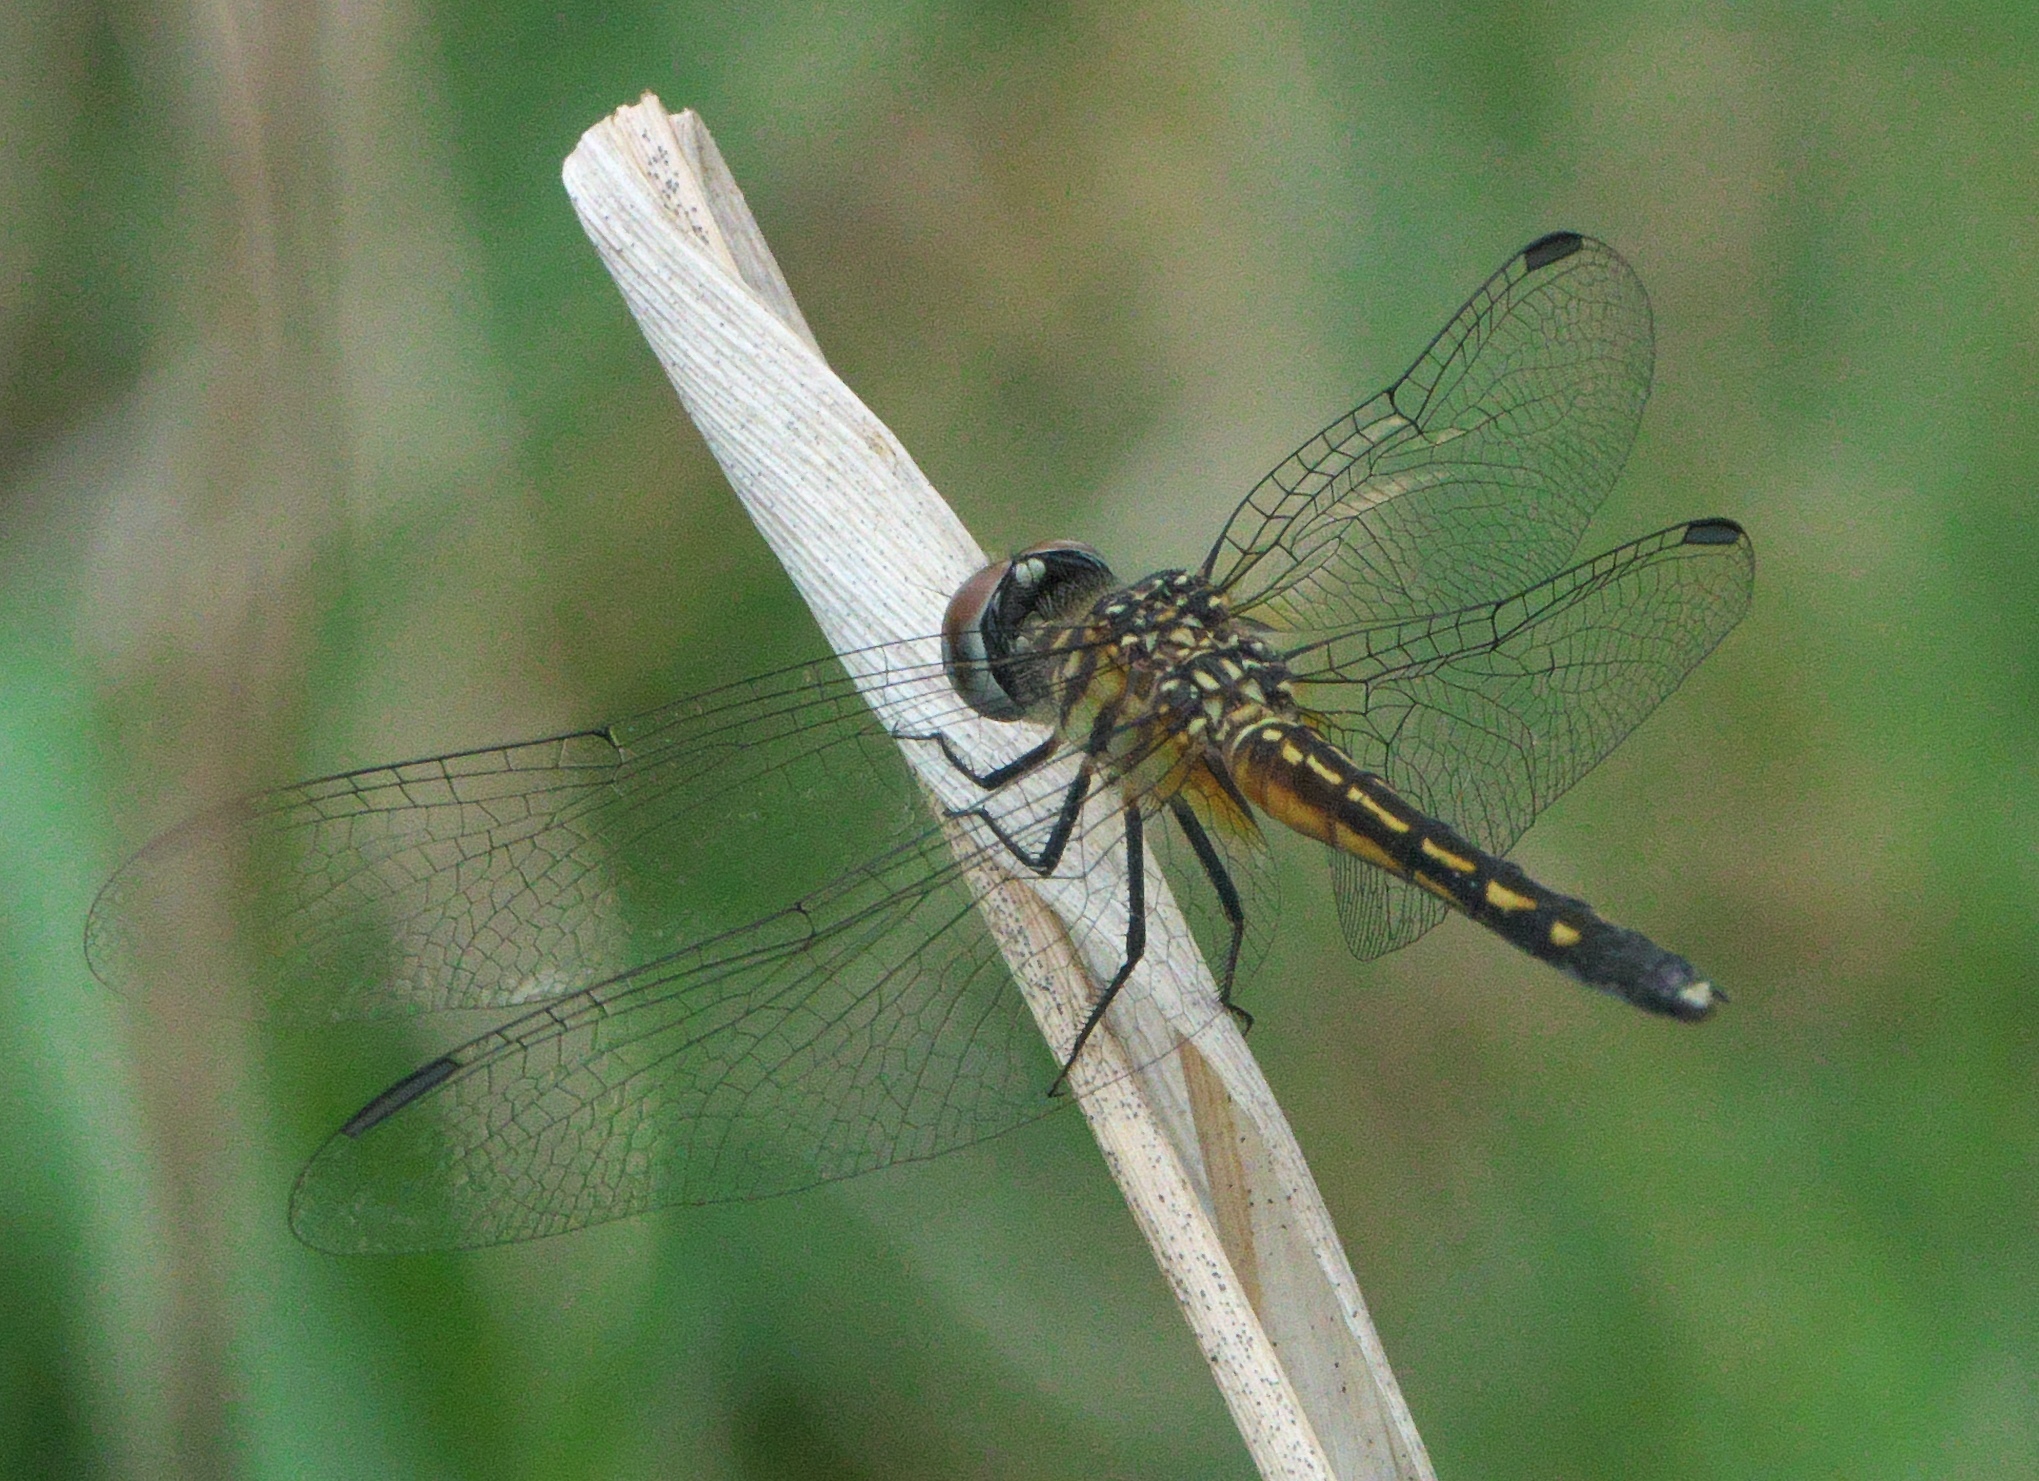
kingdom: Animalia
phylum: Arthropoda
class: Insecta
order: Odonata
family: Libellulidae
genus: Pachydiplax
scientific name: Pachydiplax longipennis
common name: Blue dasher
